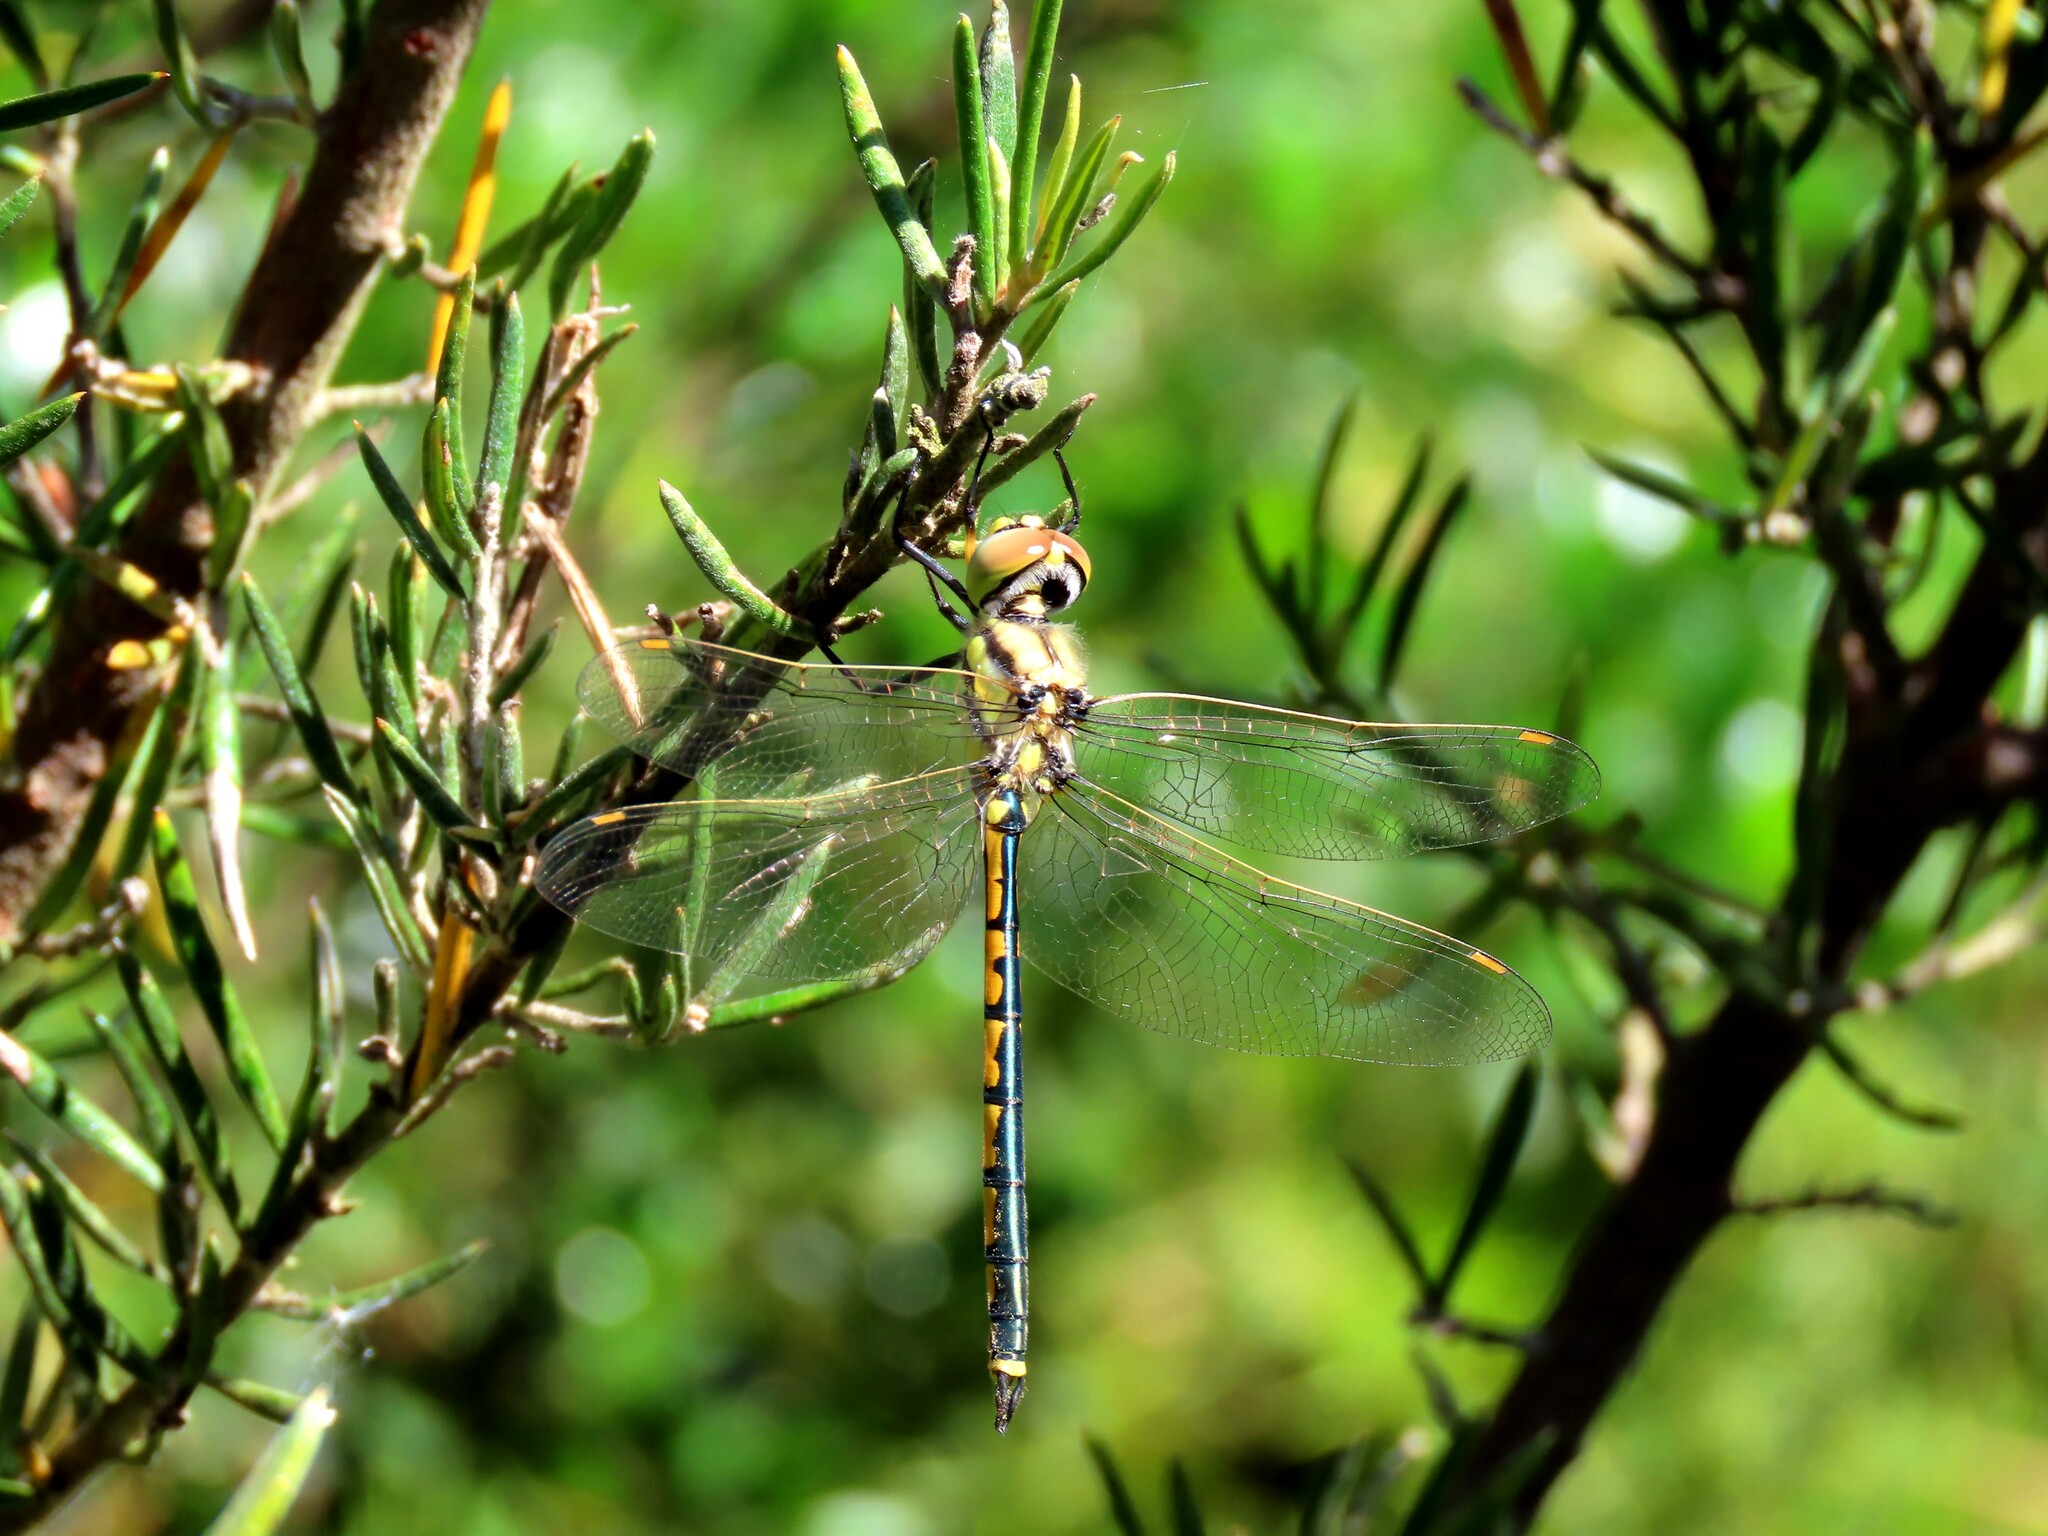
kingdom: Animalia
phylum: Arthropoda
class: Insecta
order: Odonata
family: Corduliidae
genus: Hemicordulia
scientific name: Hemicordulia tau
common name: Tau emerald
